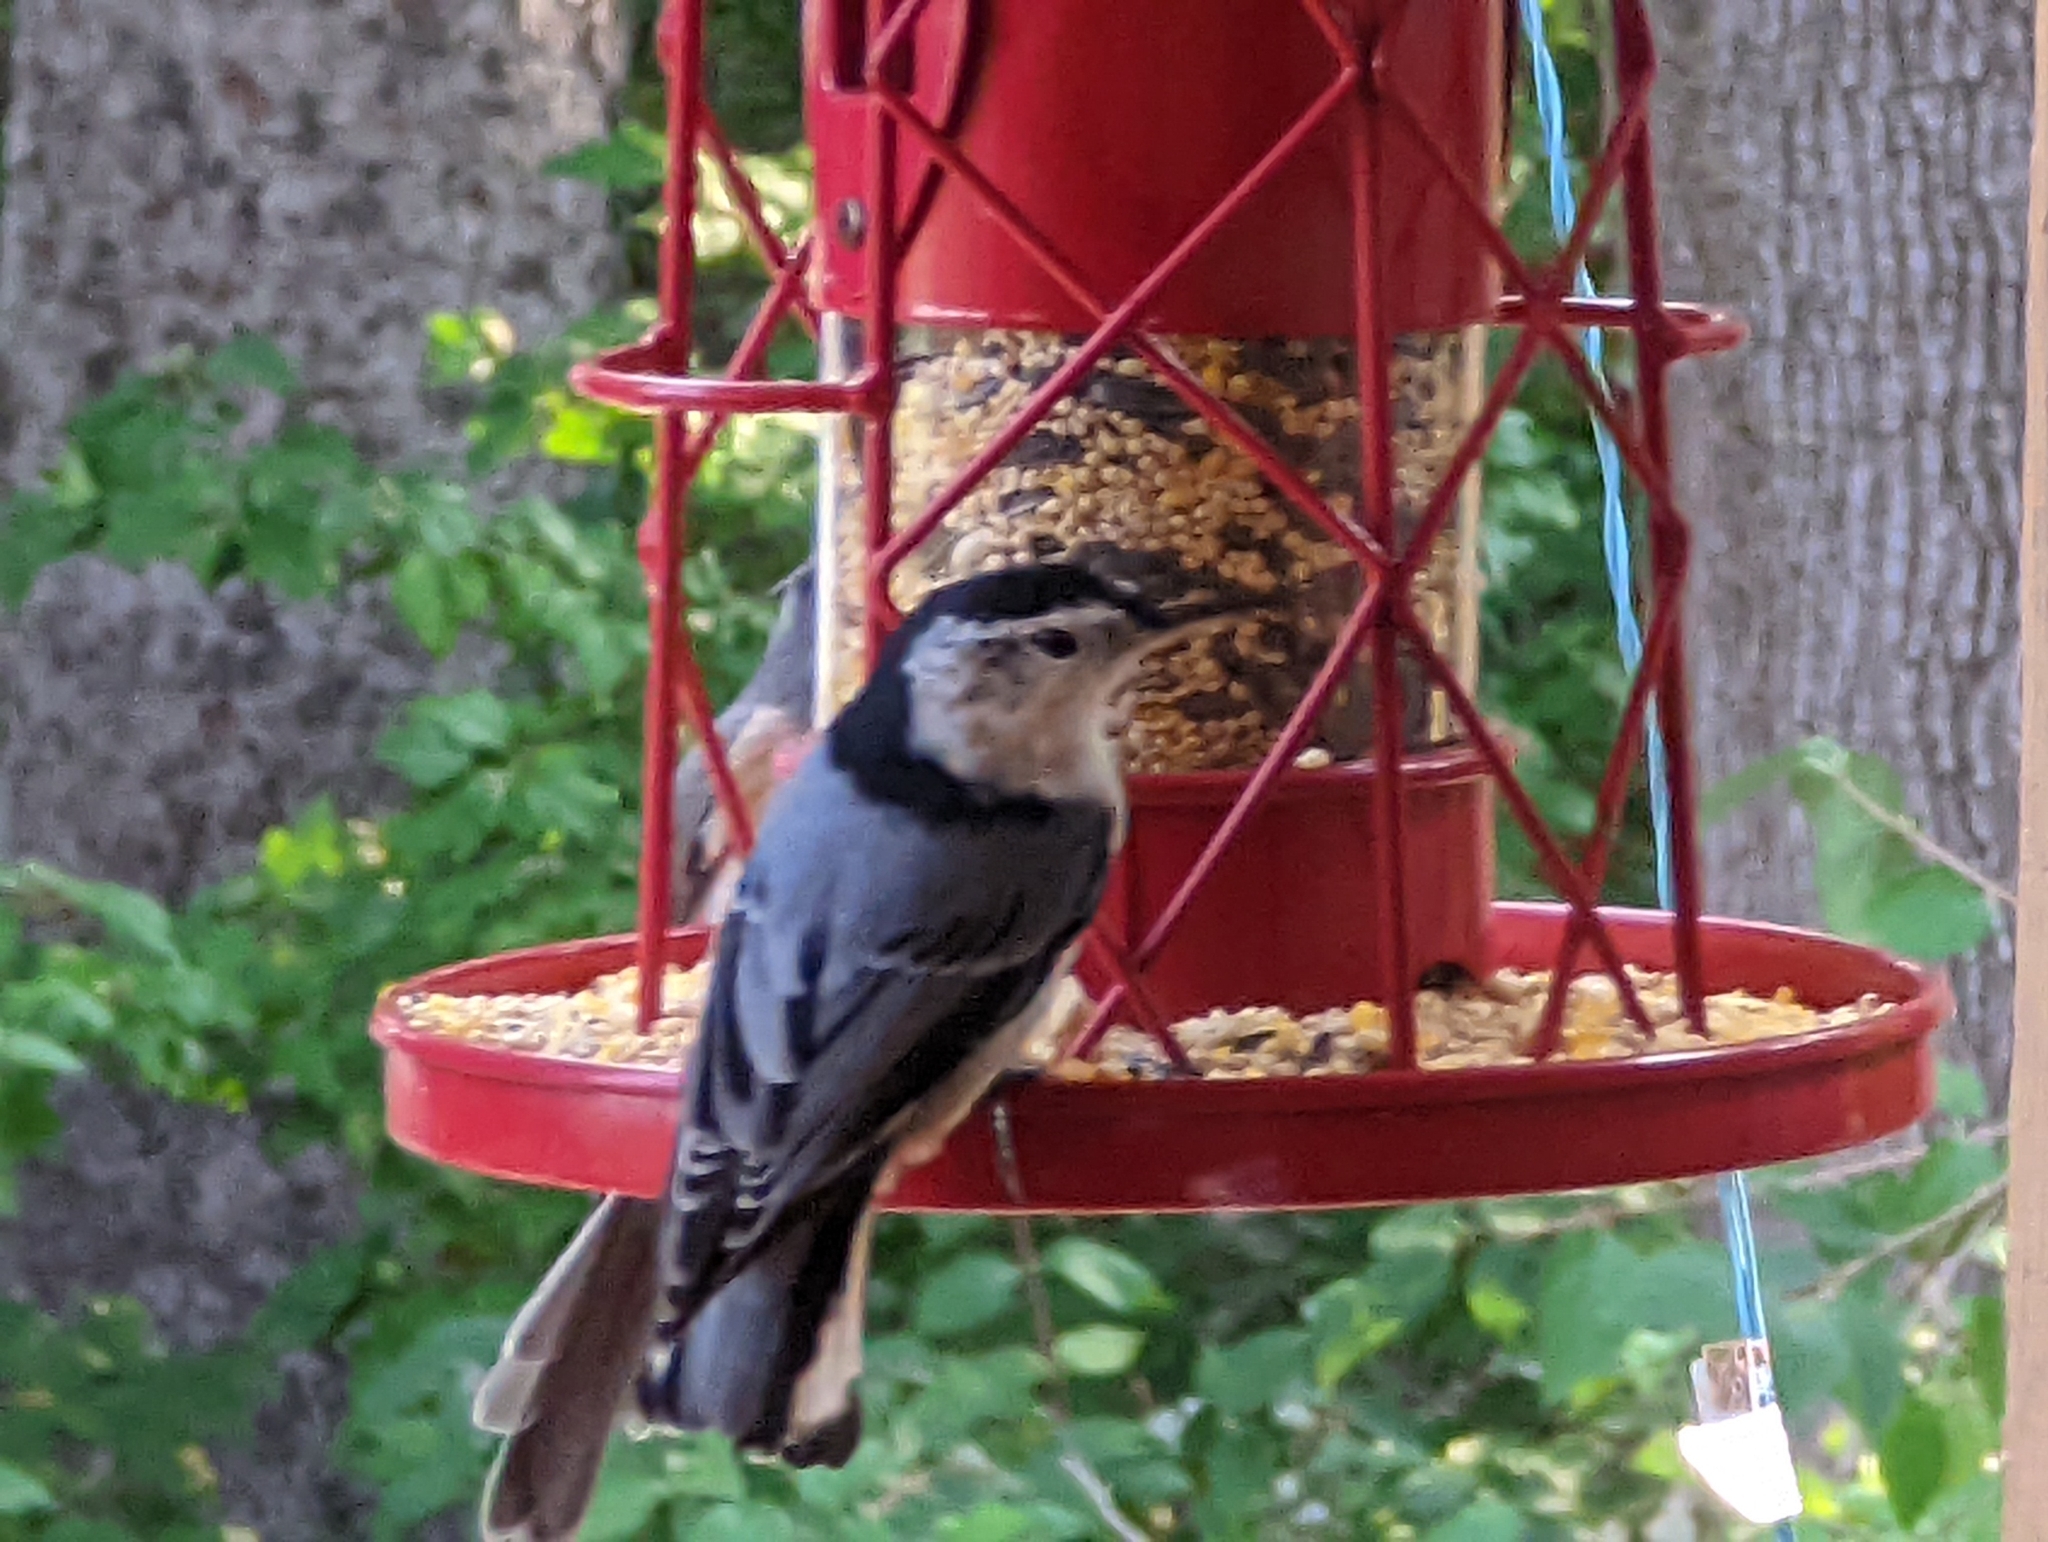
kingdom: Animalia
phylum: Chordata
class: Aves
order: Passeriformes
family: Sittidae
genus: Sitta
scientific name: Sitta carolinensis
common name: White-breasted nuthatch
